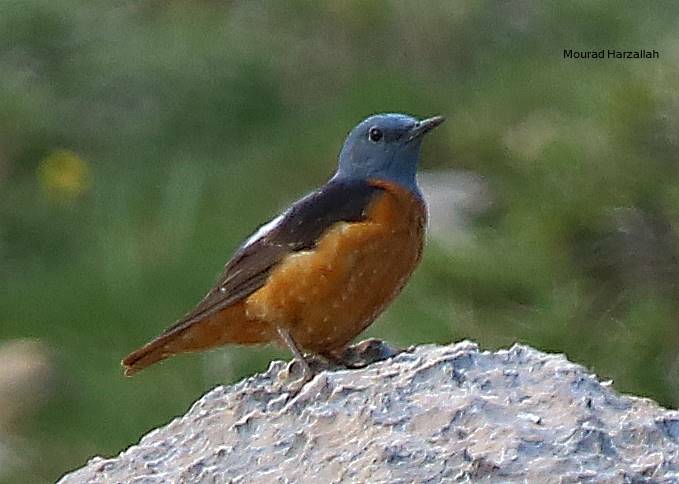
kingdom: Animalia
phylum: Chordata
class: Aves
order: Passeriformes
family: Muscicapidae
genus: Monticola
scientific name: Monticola saxatilis
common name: Rufous-tailed rock thrush
